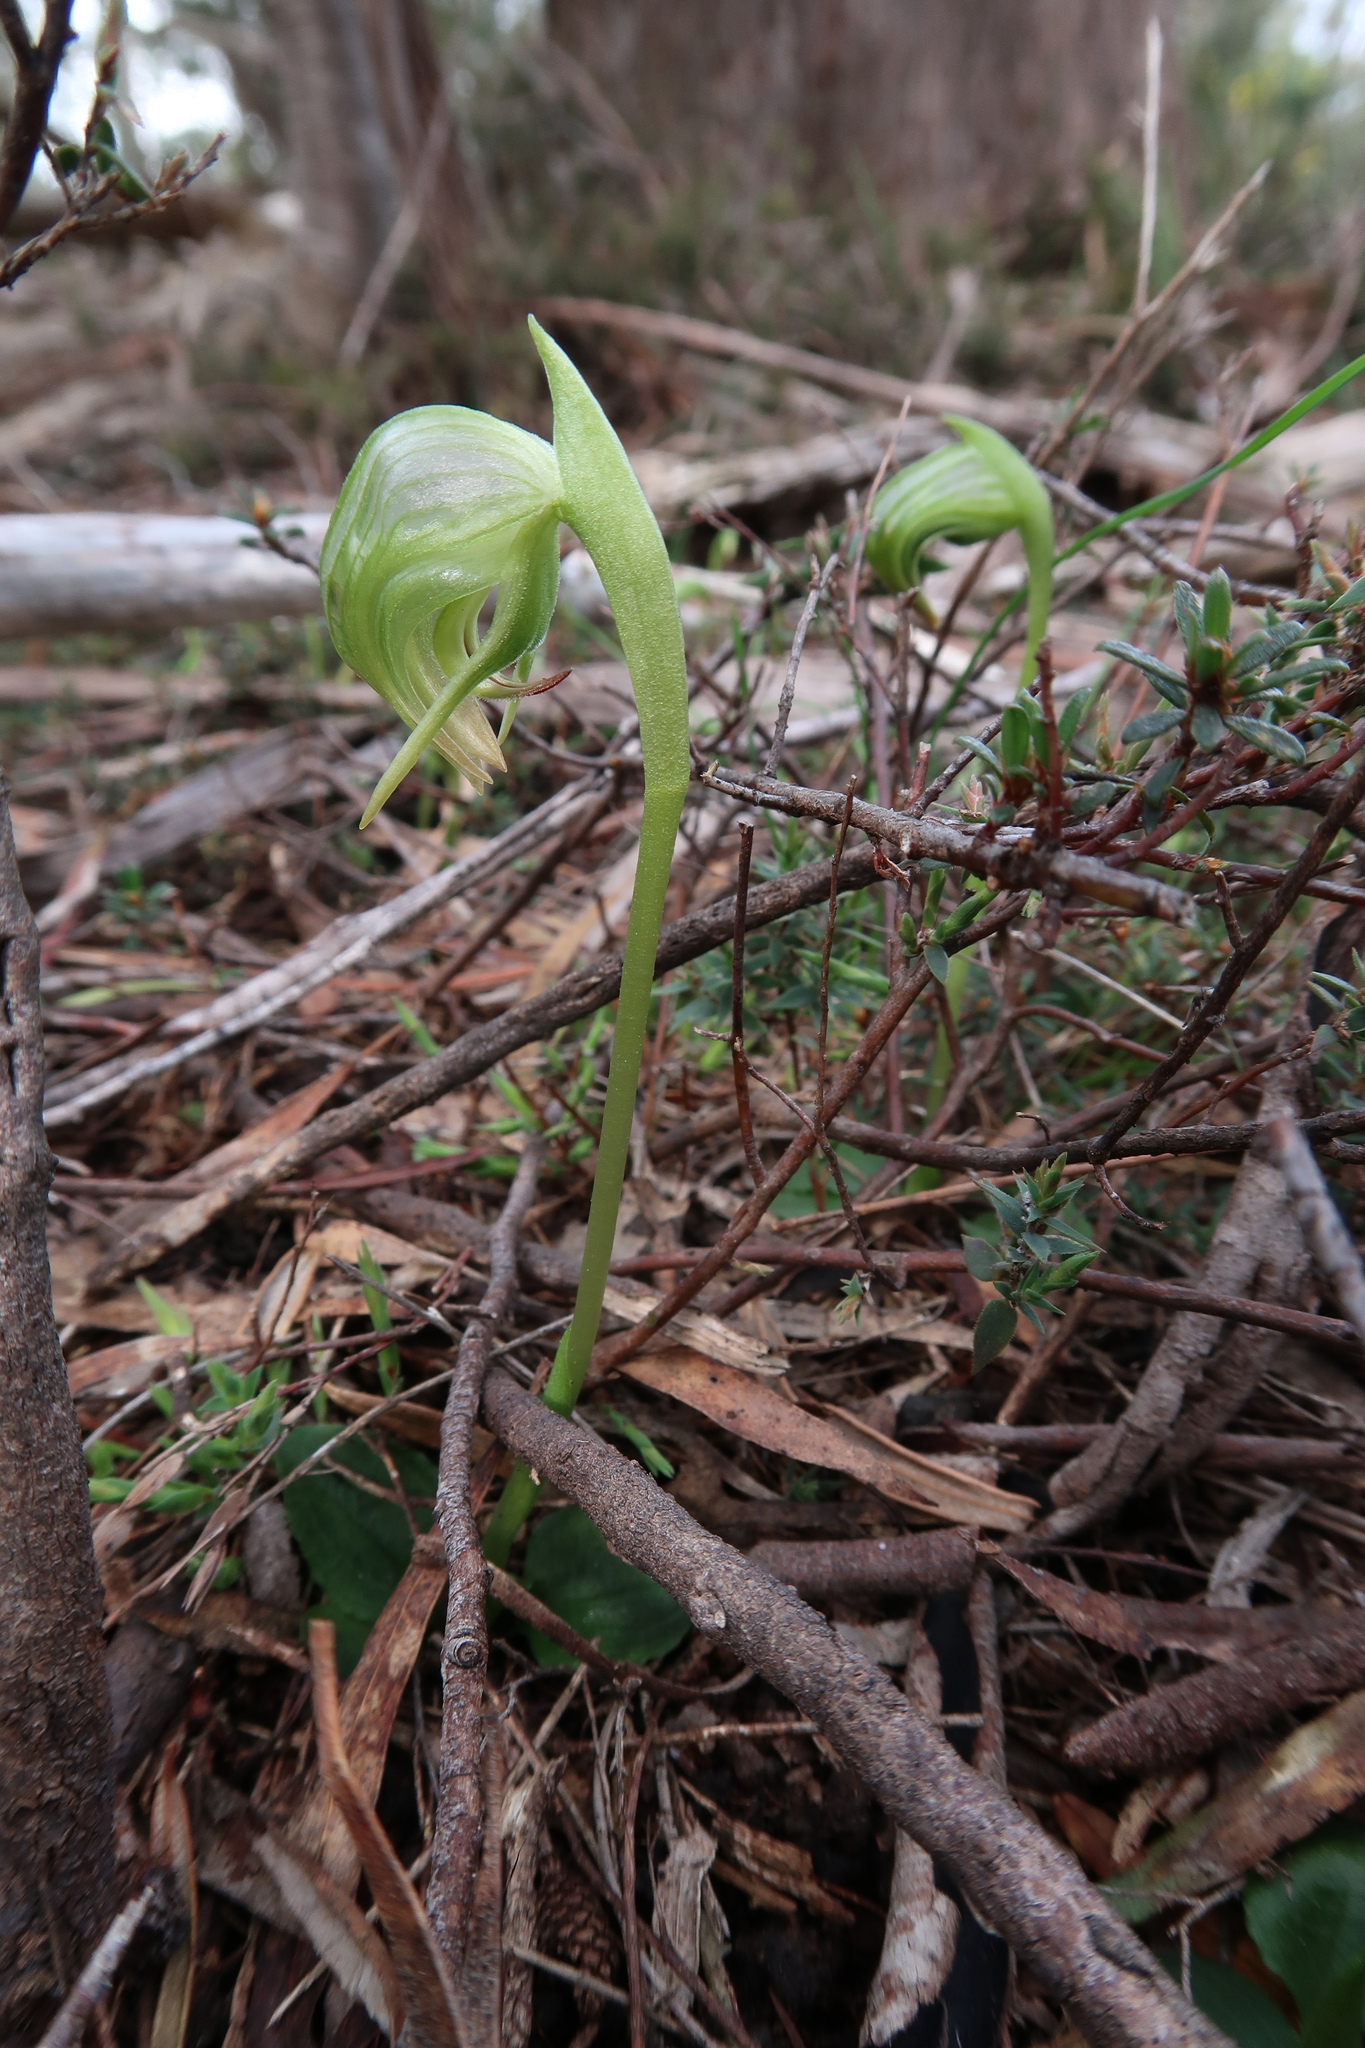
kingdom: Plantae
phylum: Tracheophyta
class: Liliopsida
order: Asparagales
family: Orchidaceae
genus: Pterostylis
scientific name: Pterostylis nutans
